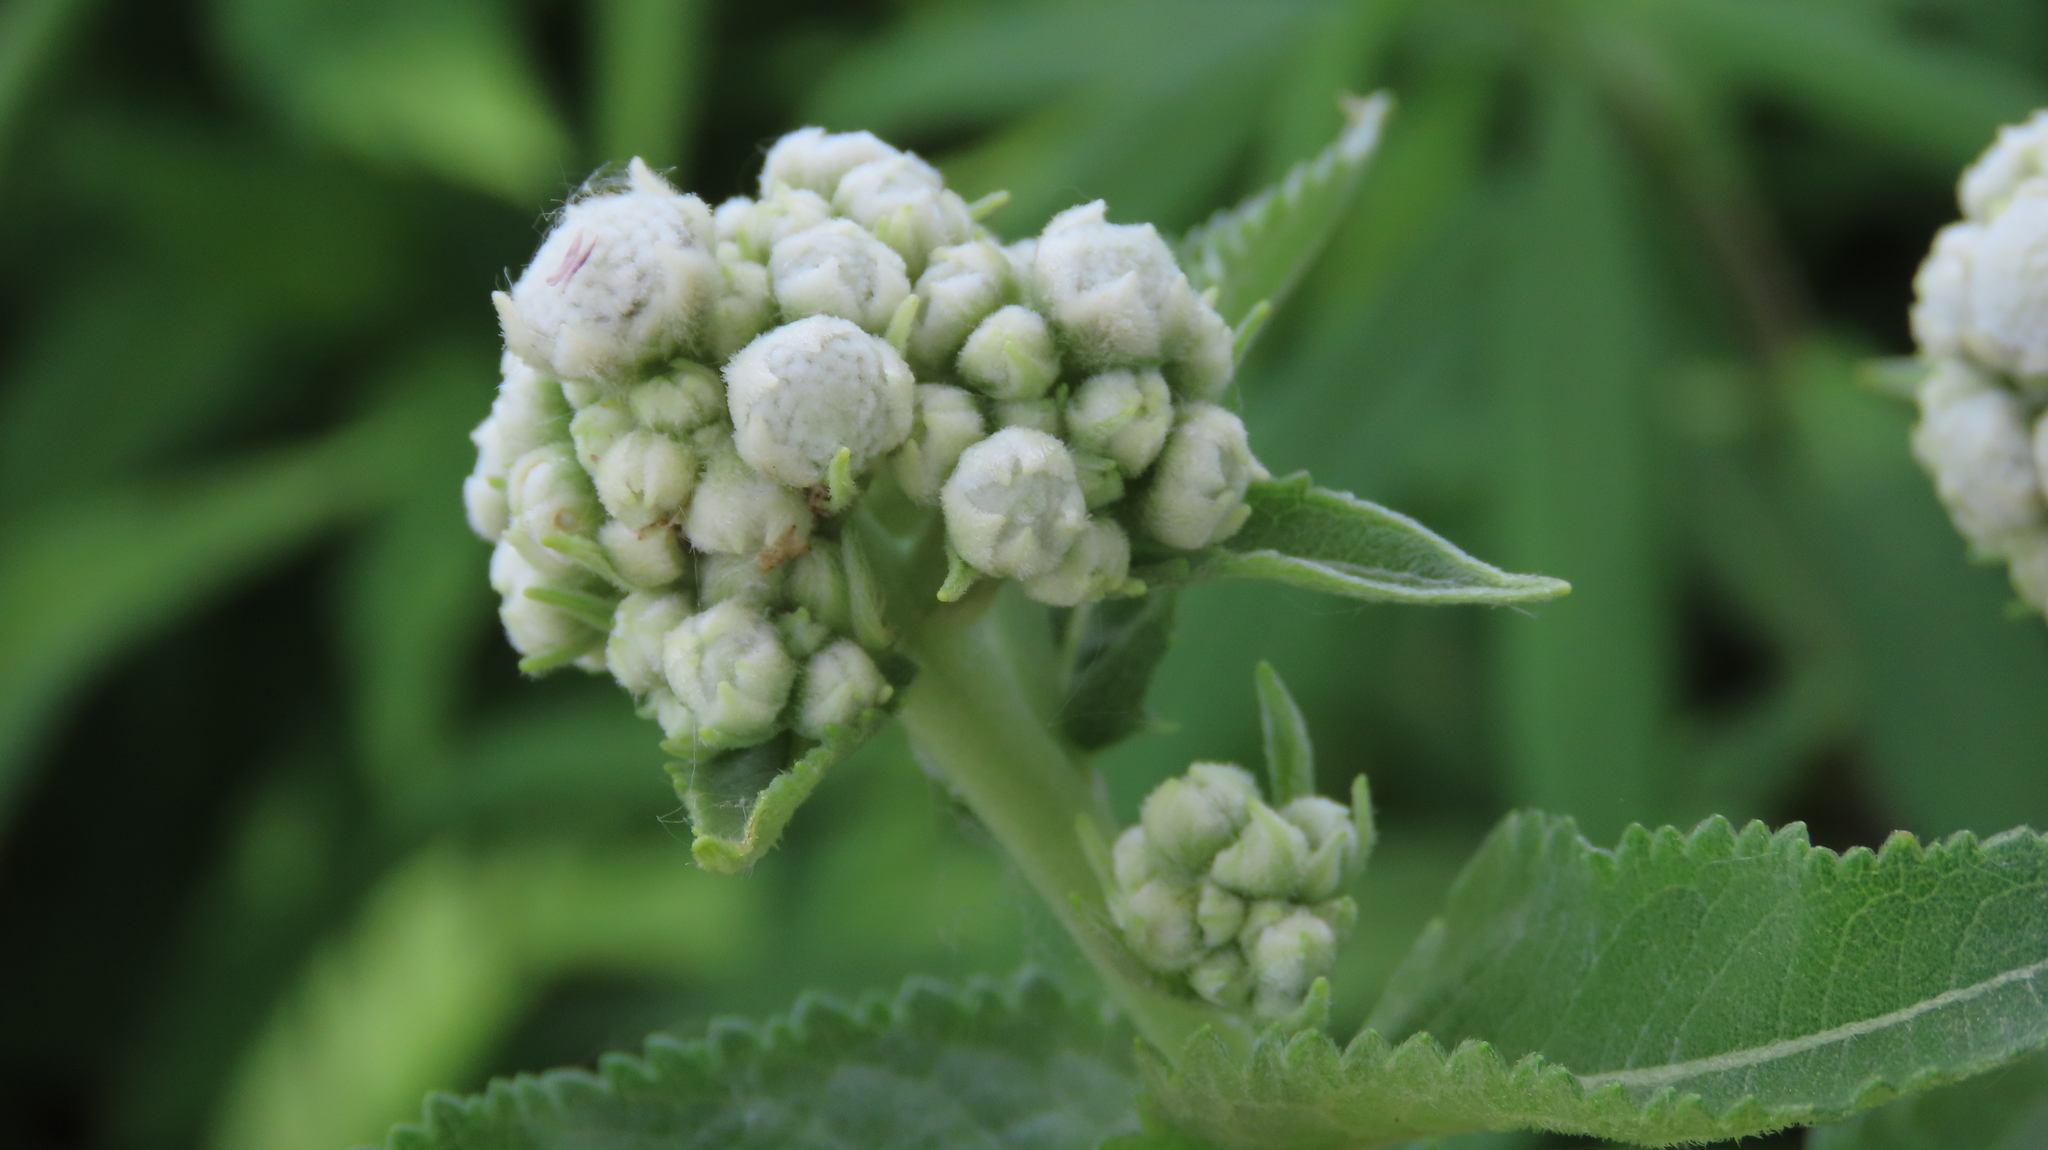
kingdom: Plantae
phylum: Tracheophyta
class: Magnoliopsida
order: Asterales
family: Asteraceae
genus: Parthenium
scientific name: Parthenium integrifolium
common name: American feverfew
